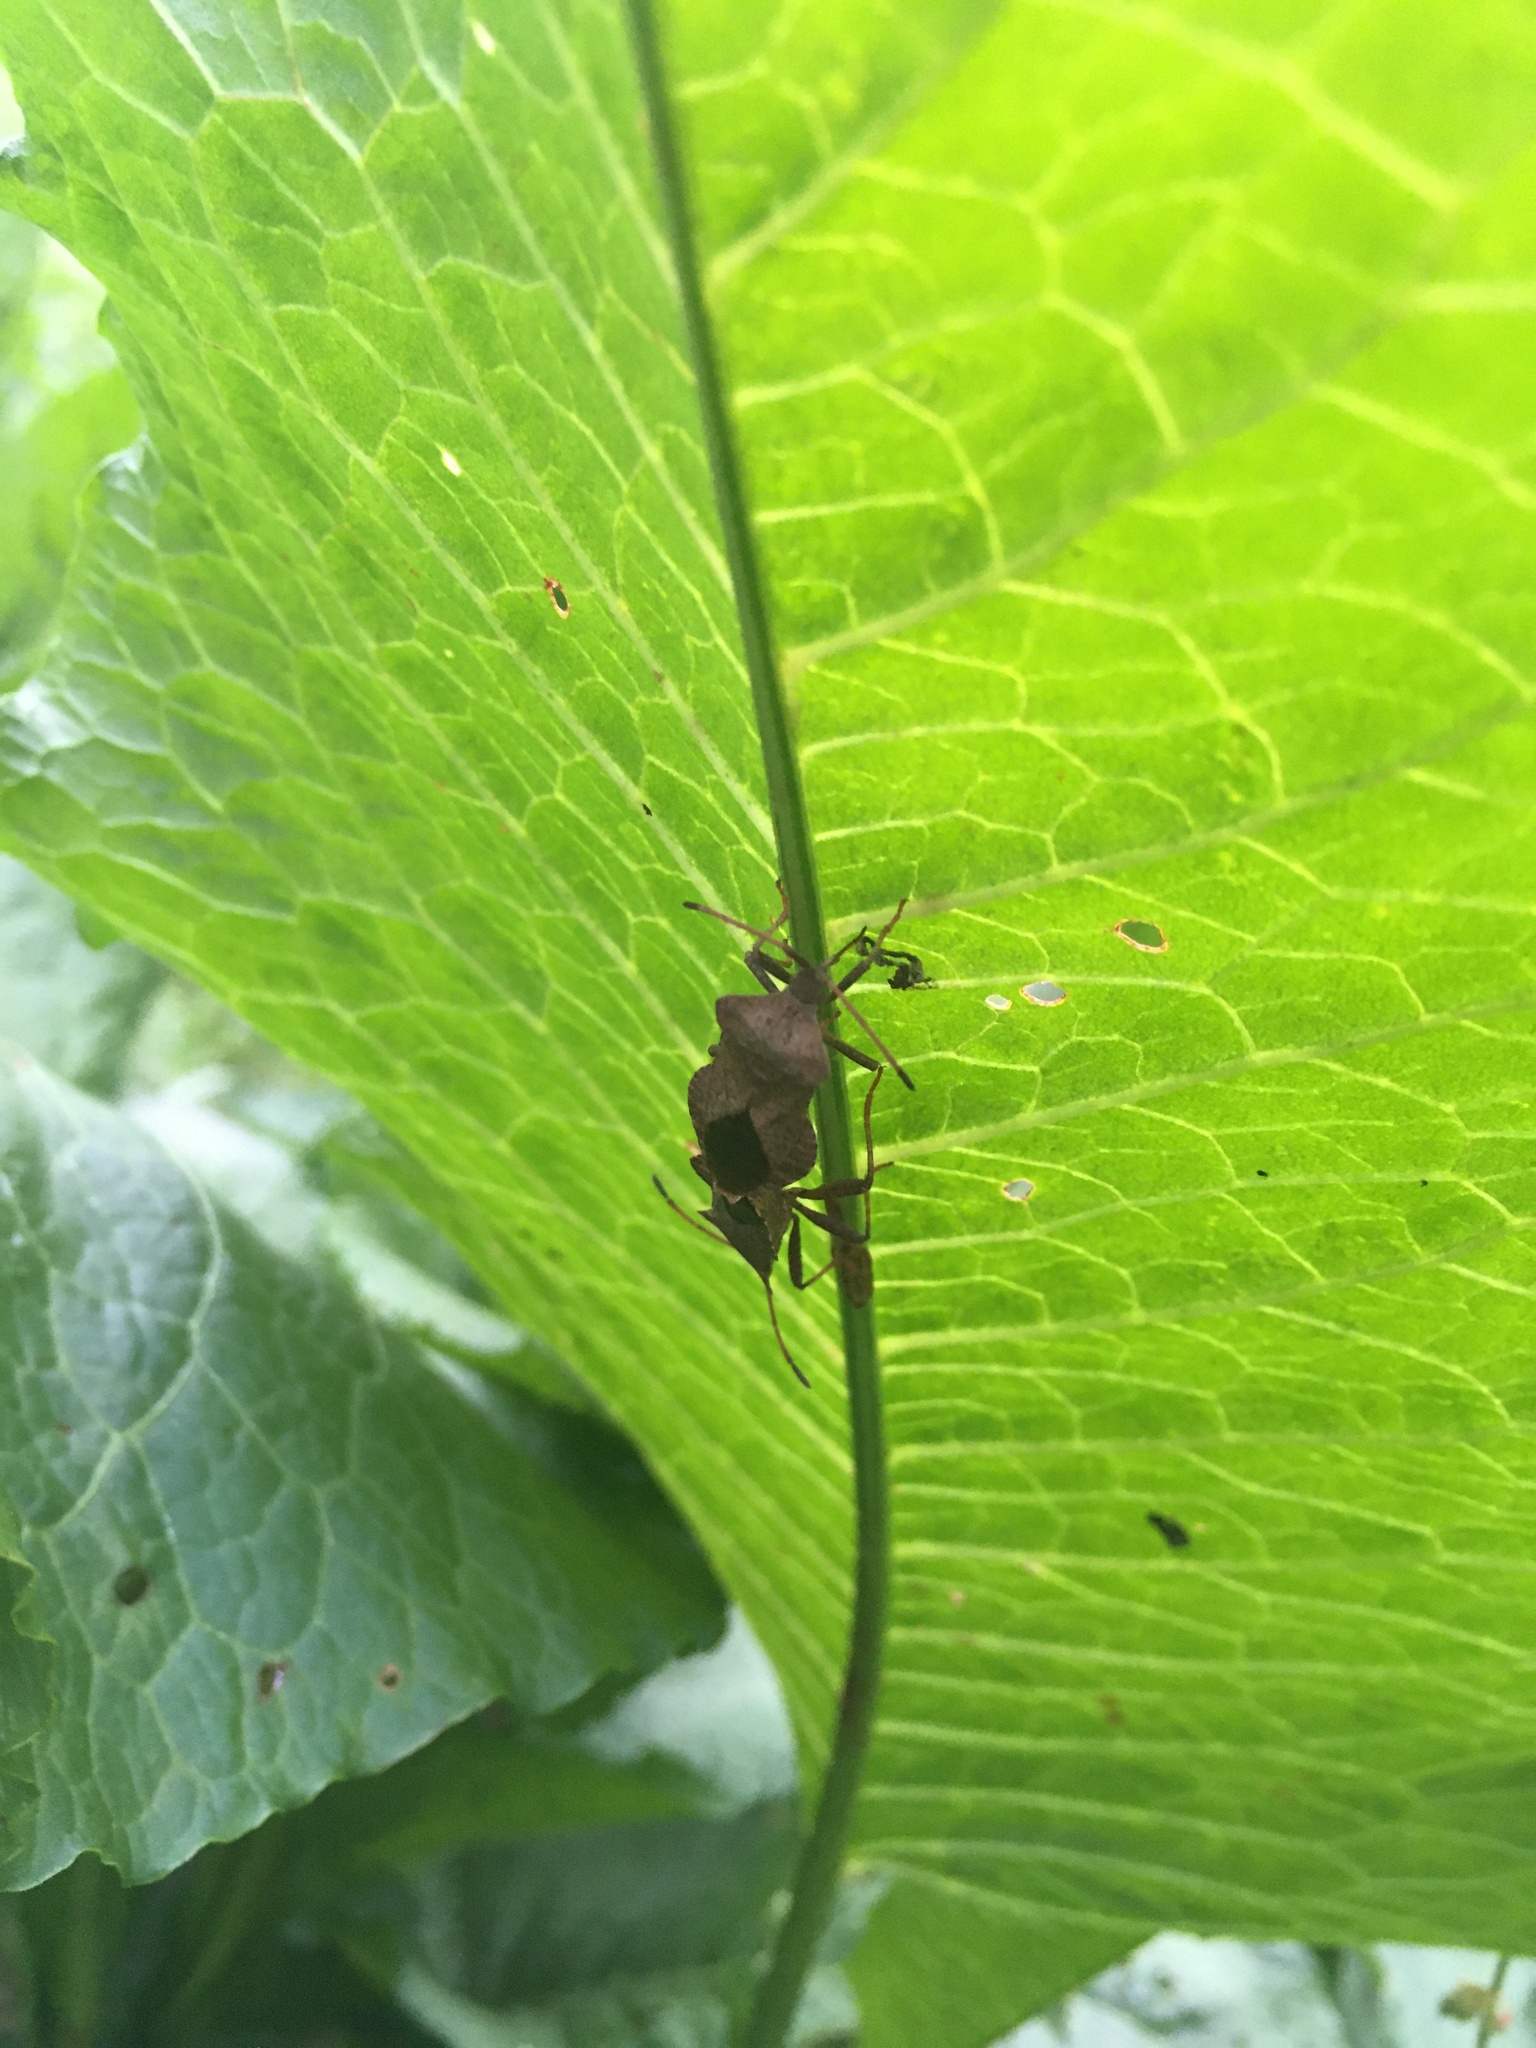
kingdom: Animalia
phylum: Arthropoda
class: Insecta
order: Hemiptera
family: Coreidae
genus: Coreus
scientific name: Coreus marginatus
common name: Dock bug
